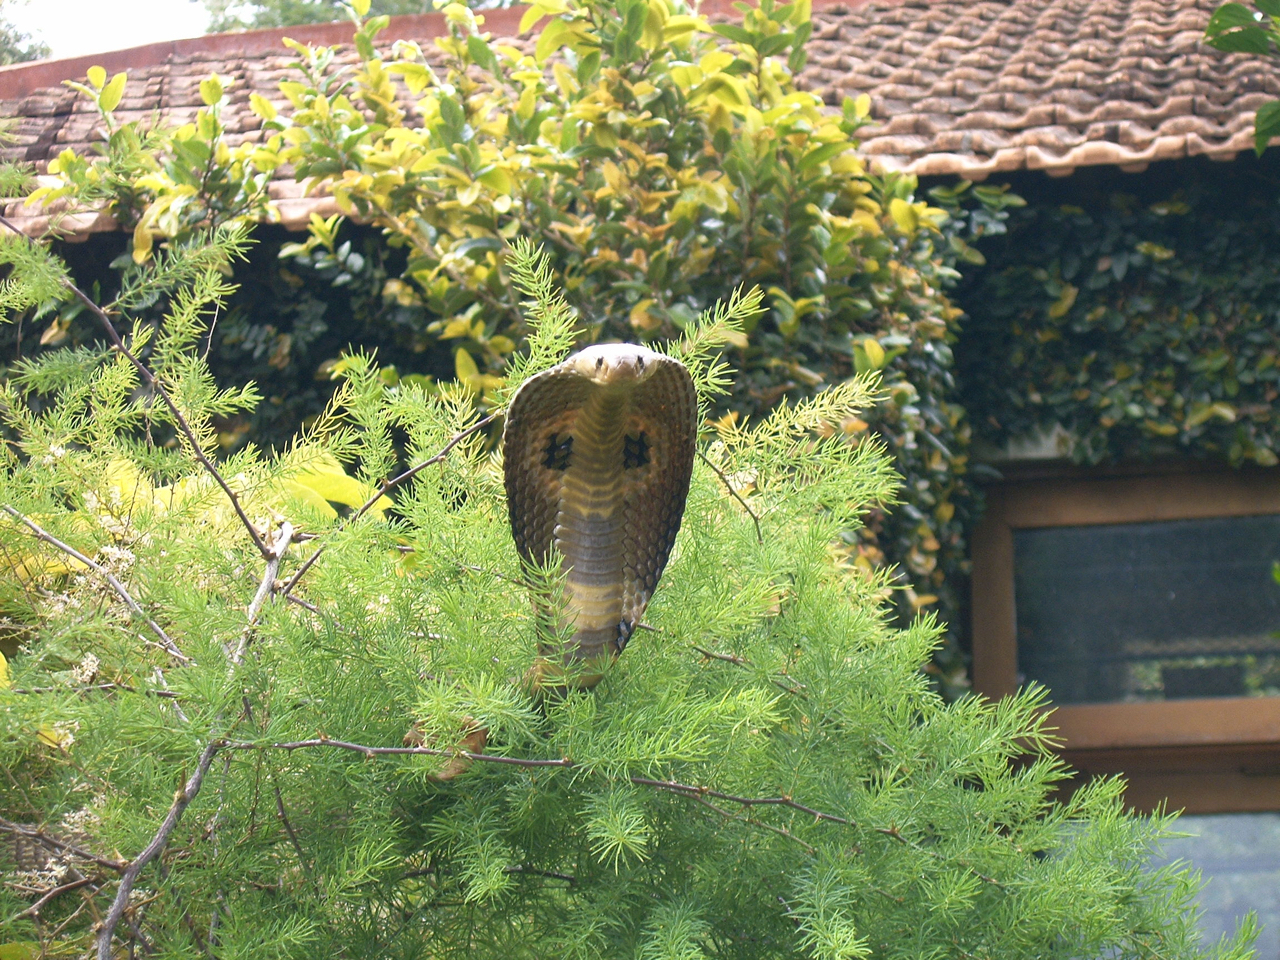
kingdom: Animalia
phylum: Chordata
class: Squamata
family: Elapidae
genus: Naja
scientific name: Naja naja
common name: Indian cobra
